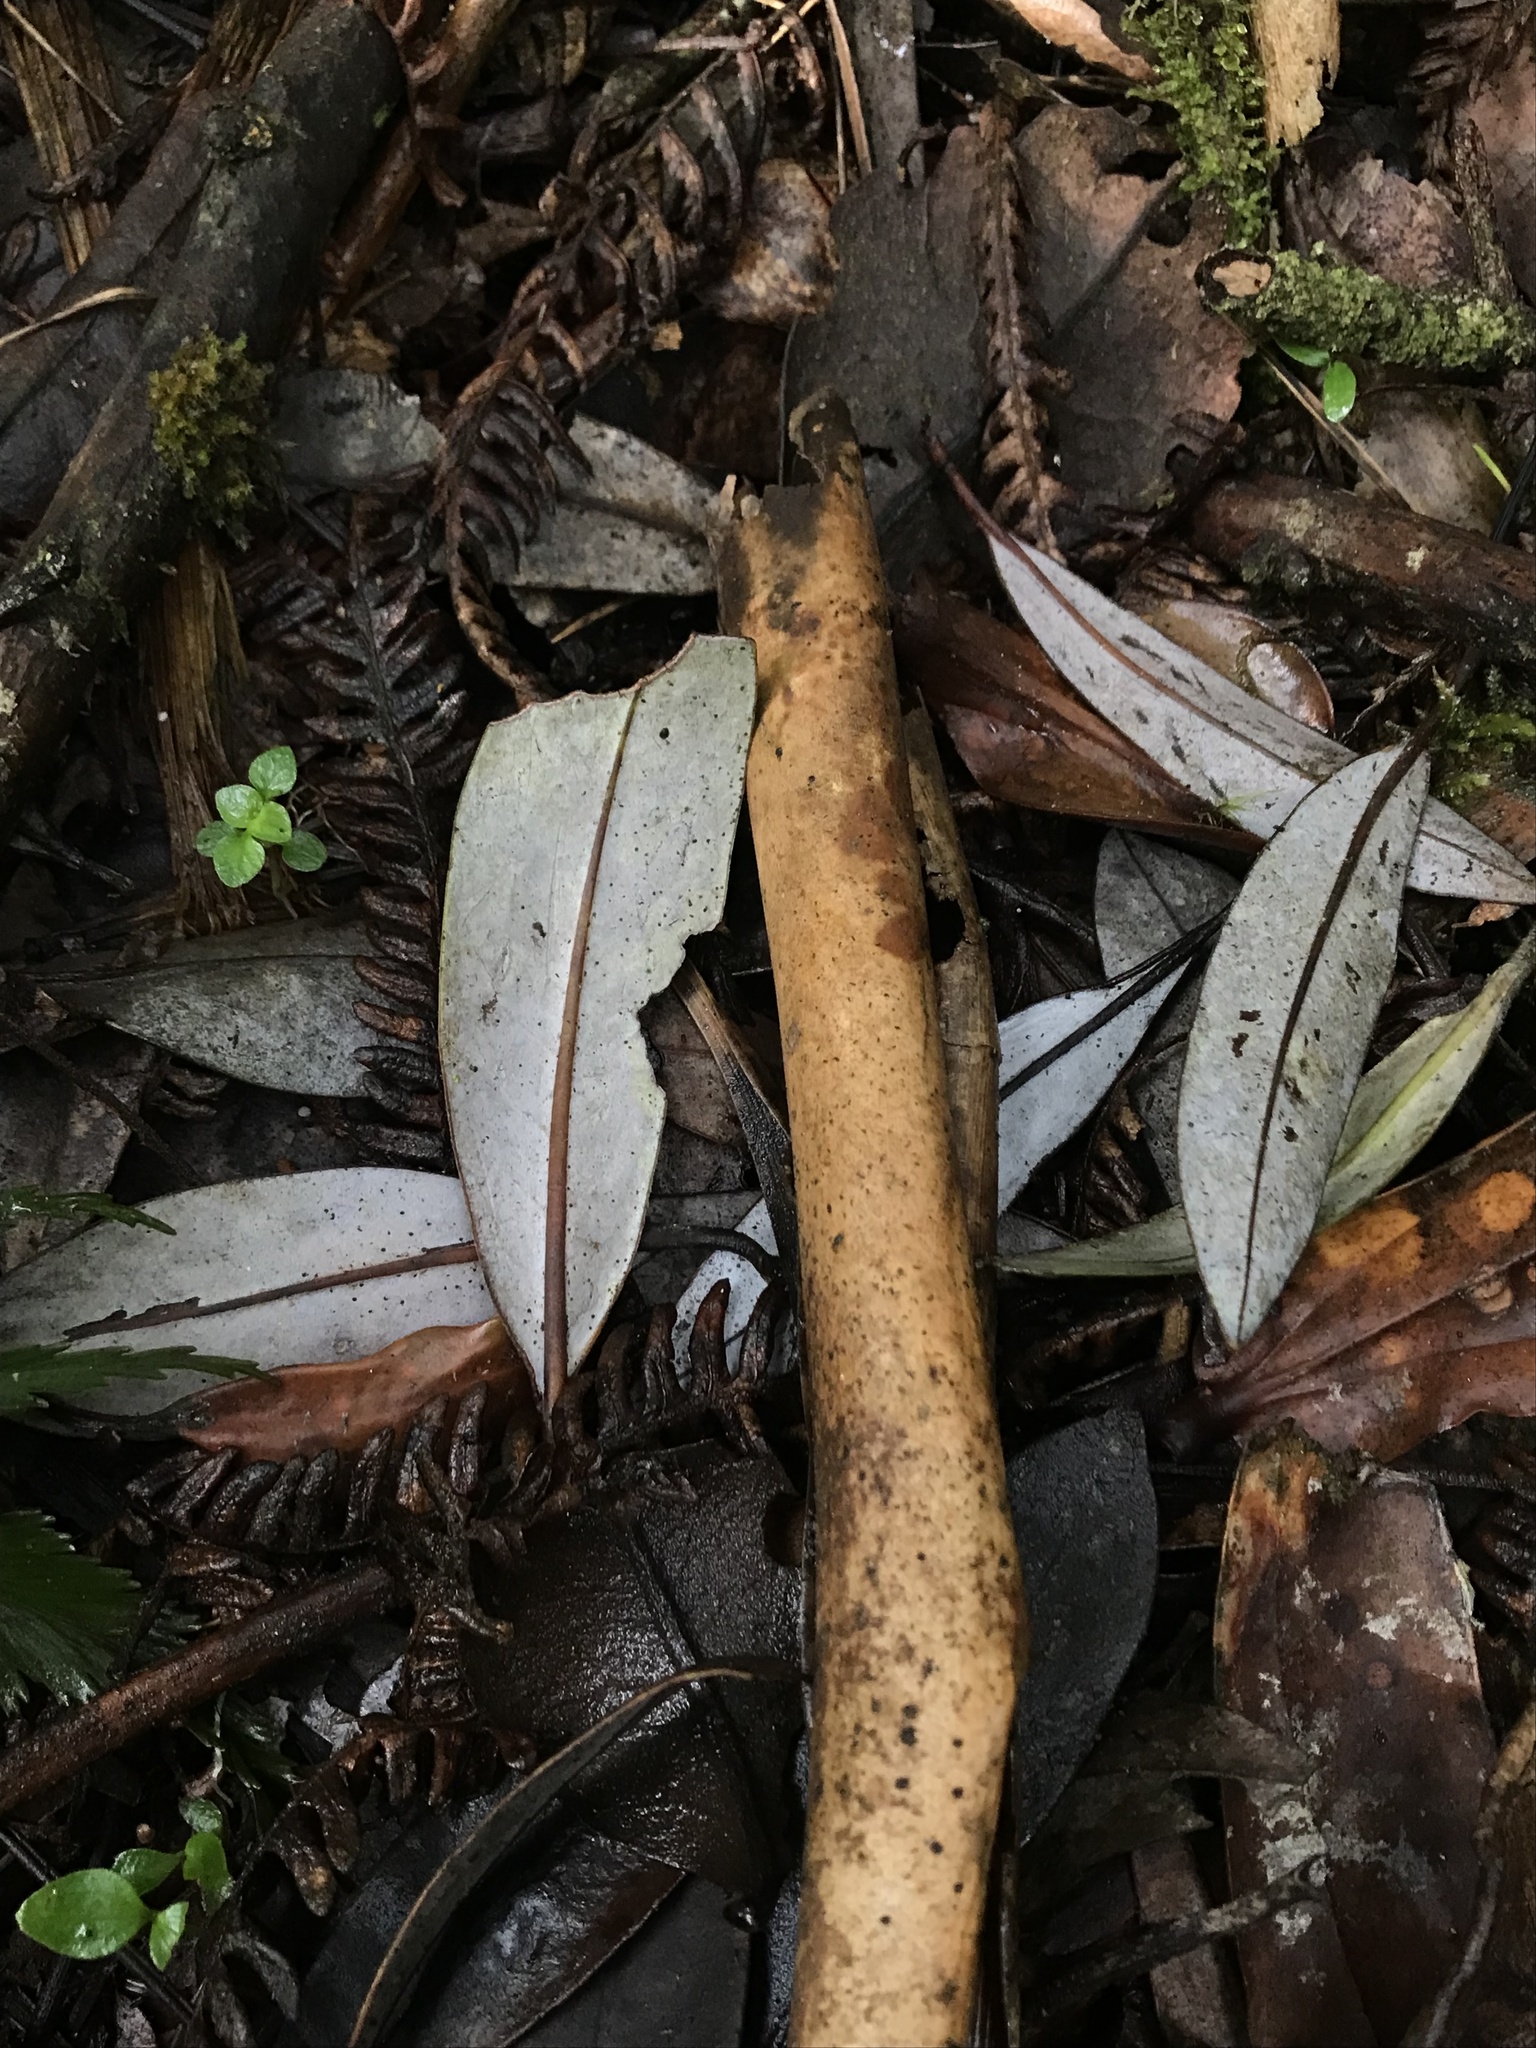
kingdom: Plantae
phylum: Tracheophyta
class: Magnoliopsida
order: Canellales
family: Winteraceae
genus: Drimys
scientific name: Drimys granadensis
